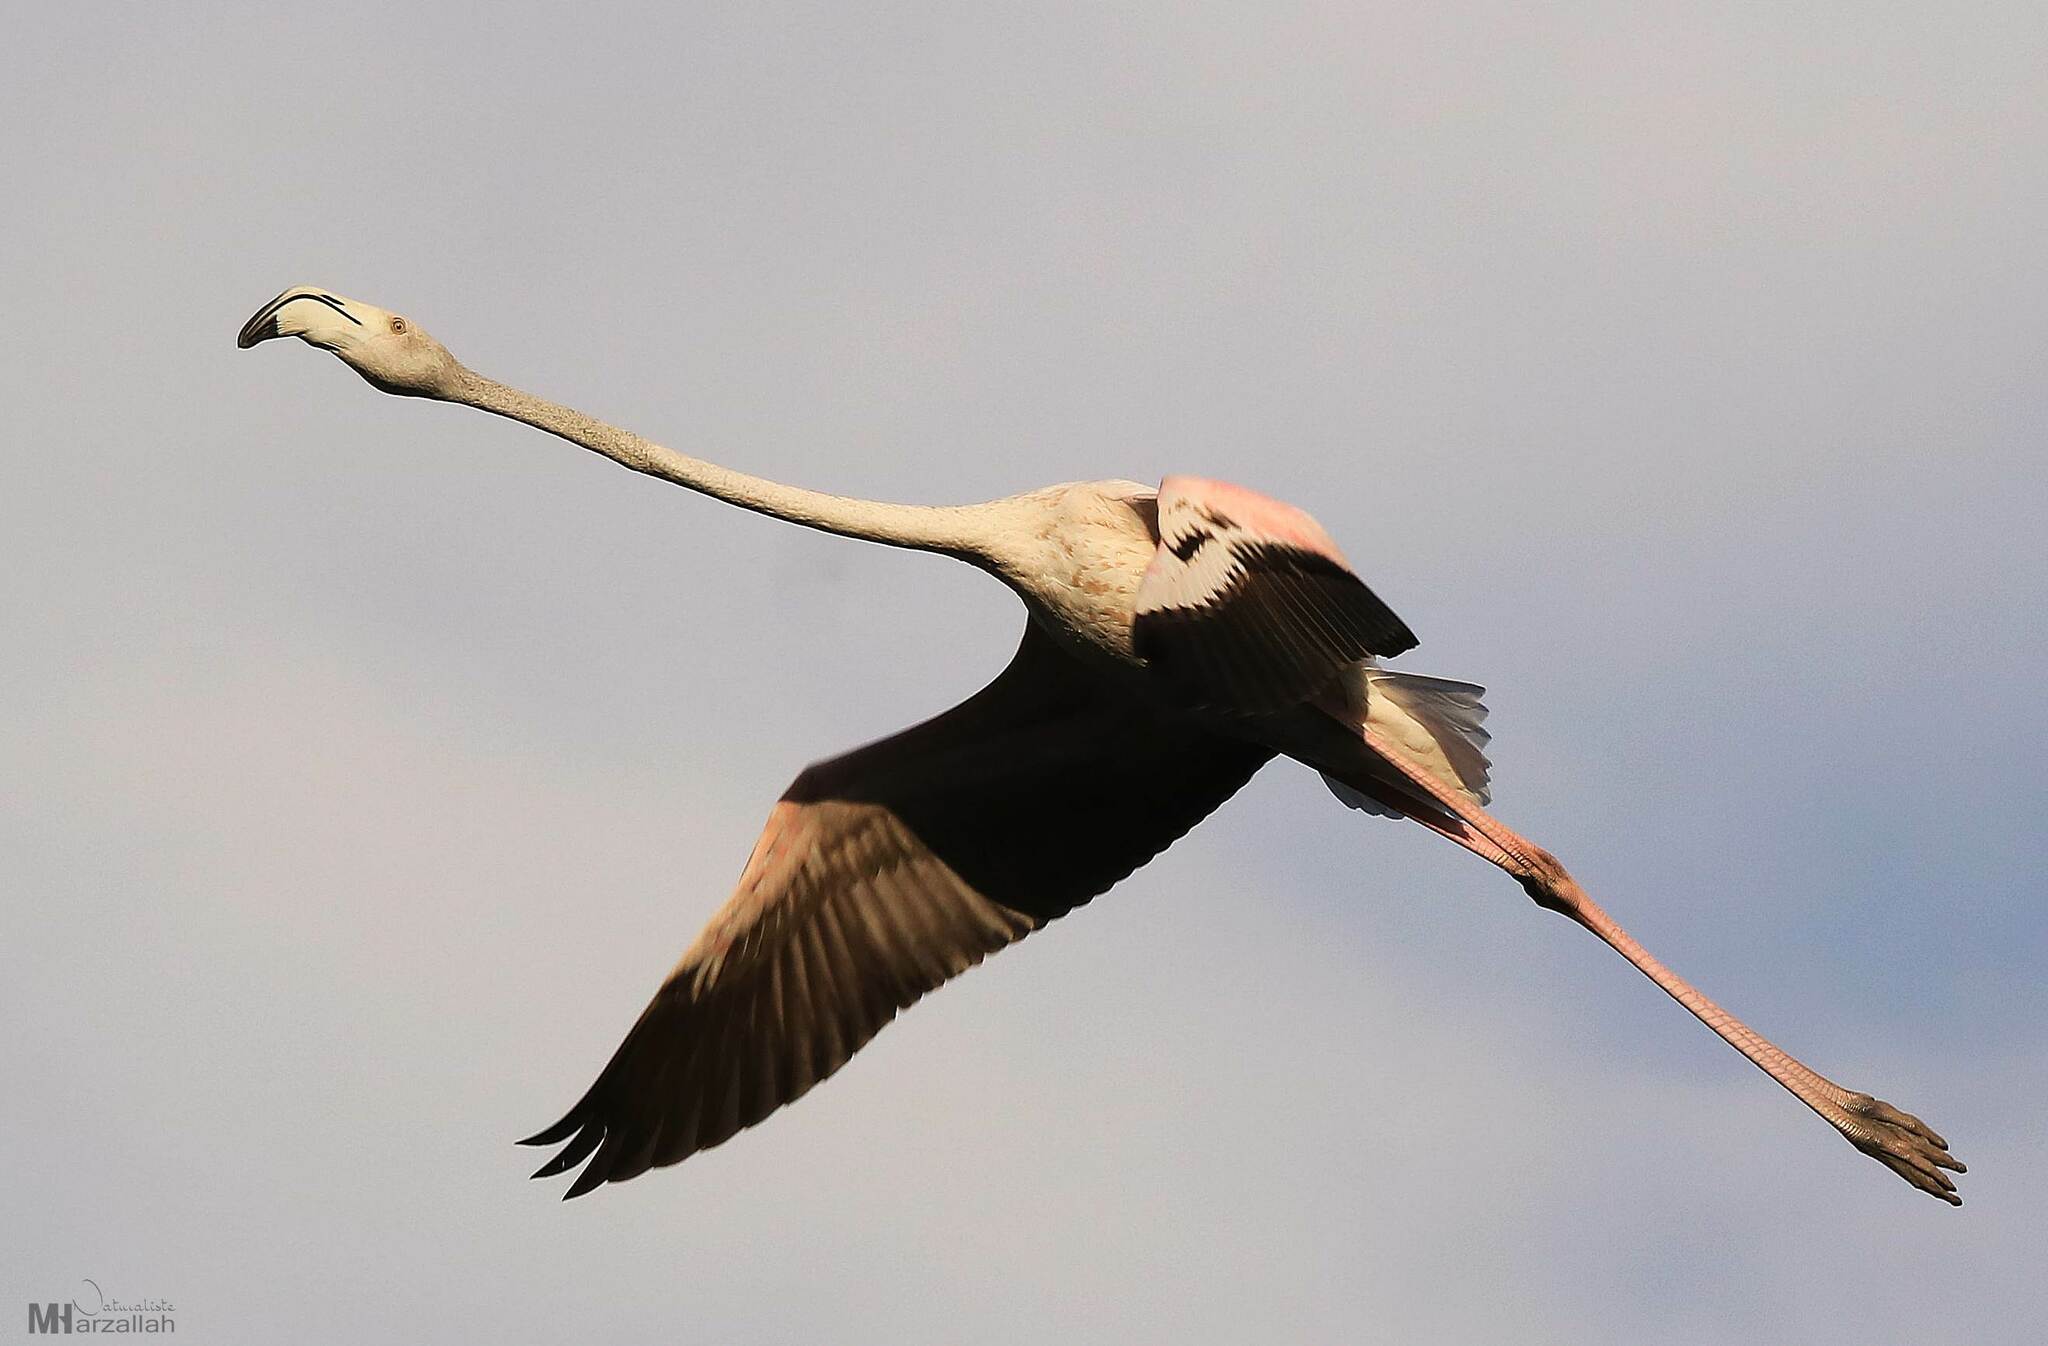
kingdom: Animalia
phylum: Chordata
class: Aves
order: Phoenicopteriformes
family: Phoenicopteridae
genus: Phoenicopterus
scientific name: Phoenicopterus roseus
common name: Greater flamingo
